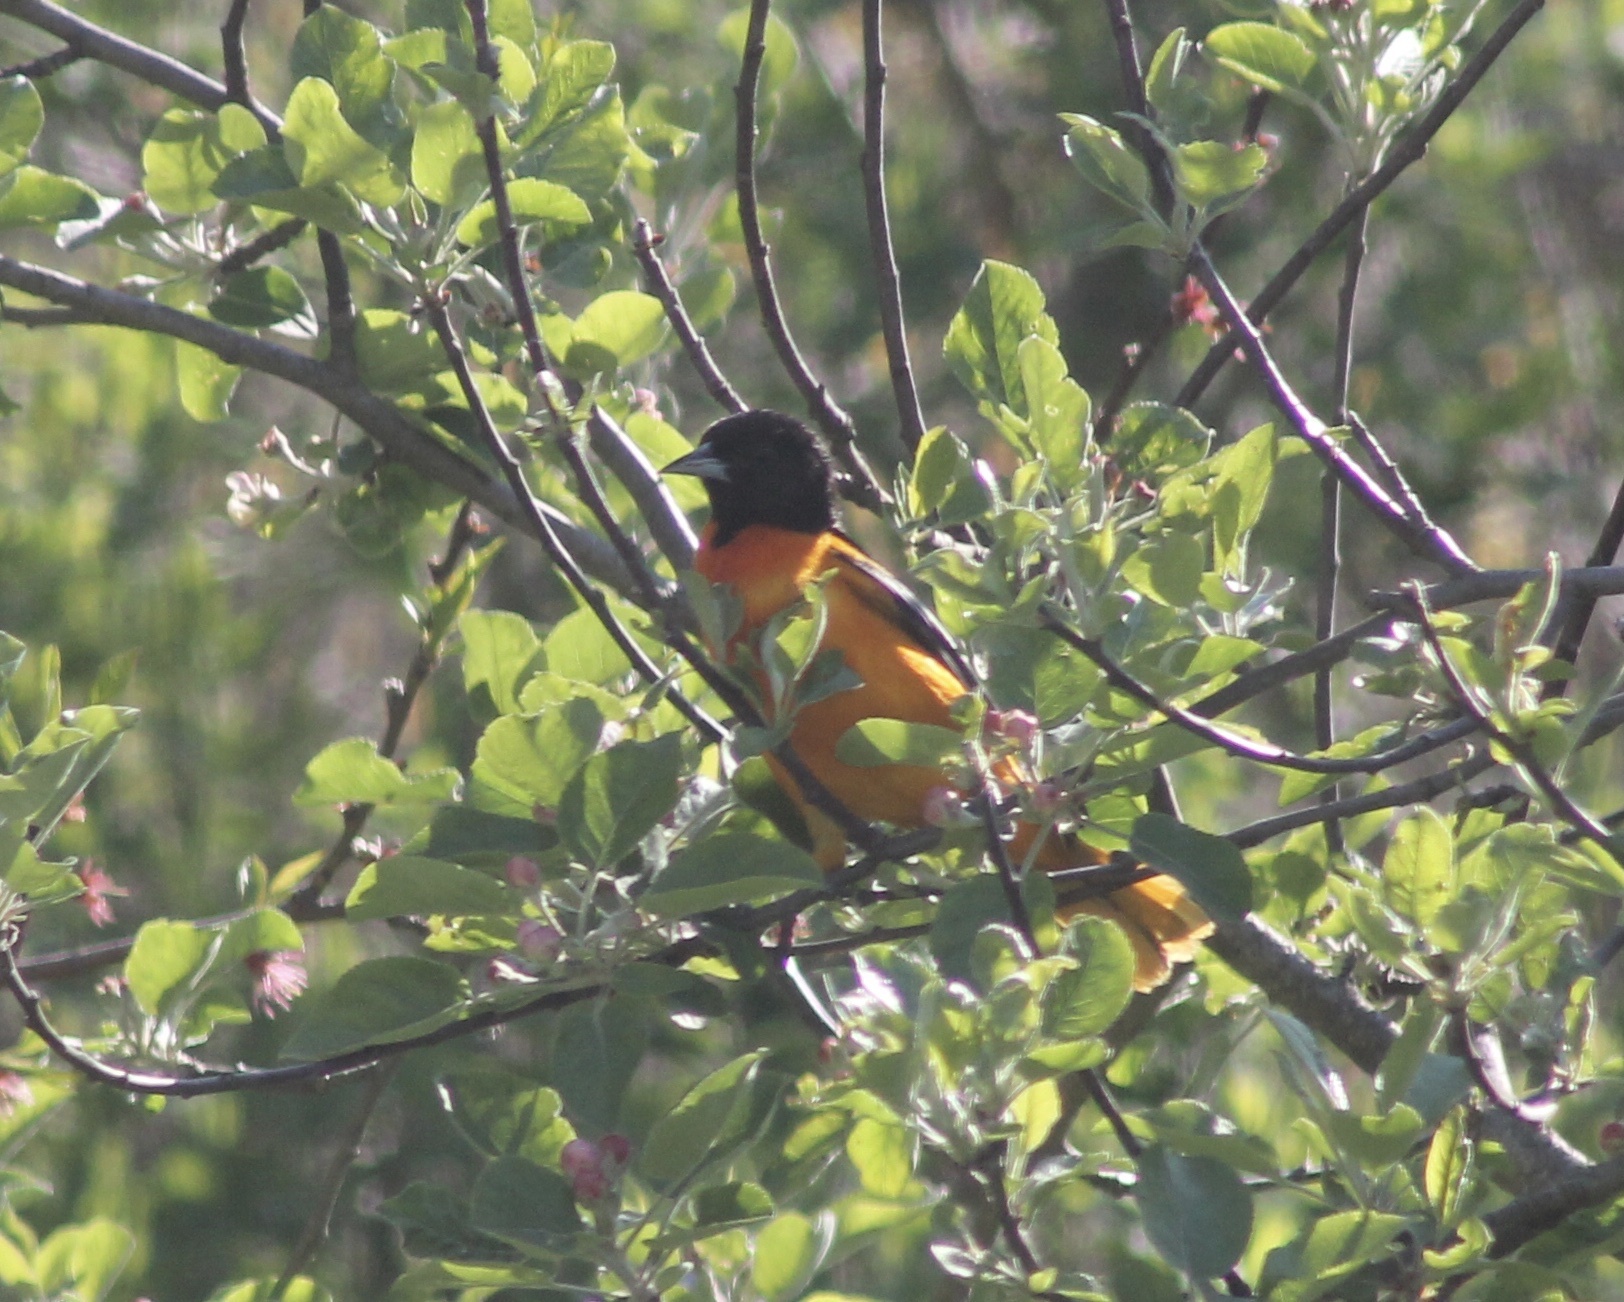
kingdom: Animalia
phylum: Chordata
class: Aves
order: Passeriformes
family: Icteridae
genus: Icterus
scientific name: Icterus galbula
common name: Baltimore oriole
